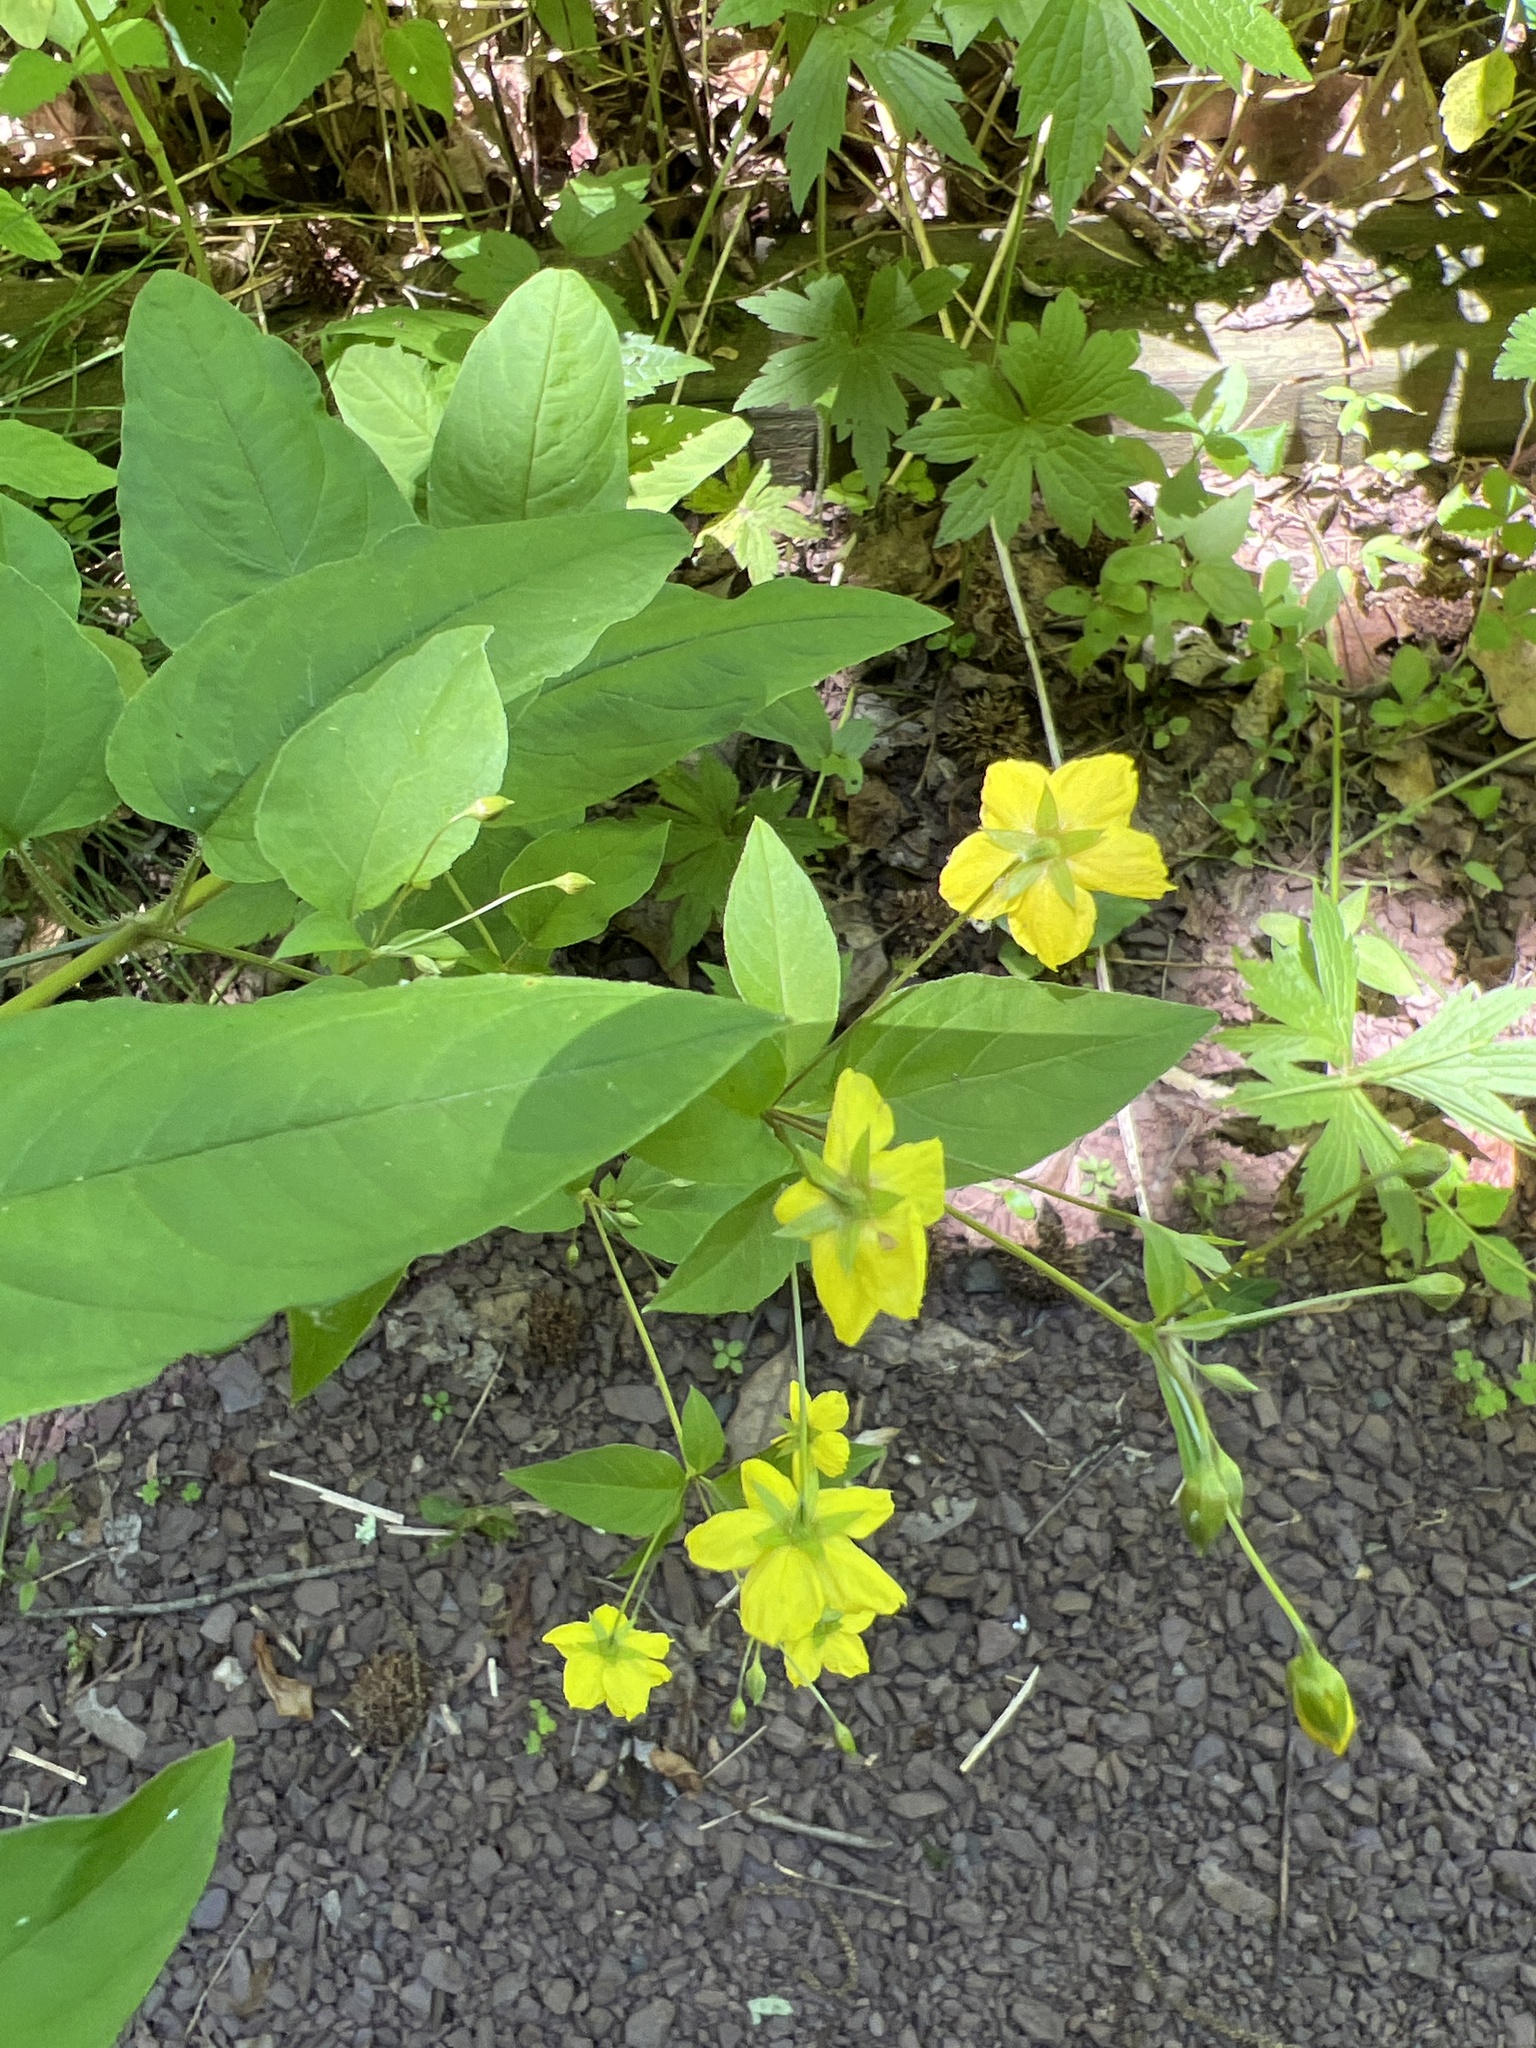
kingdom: Plantae
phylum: Tracheophyta
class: Magnoliopsida
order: Ericales
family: Primulaceae
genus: Lysimachia
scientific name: Lysimachia ciliata
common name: Fringed loosestrife
